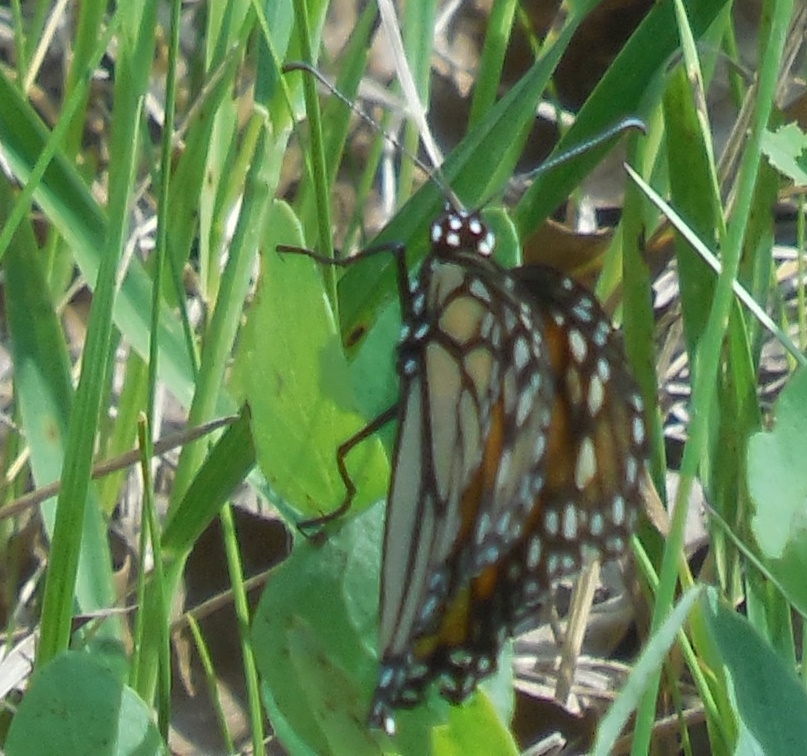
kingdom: Animalia
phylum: Arthropoda
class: Insecta
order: Lepidoptera
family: Nymphalidae
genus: Danaus
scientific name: Danaus plexippus
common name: Monarch
